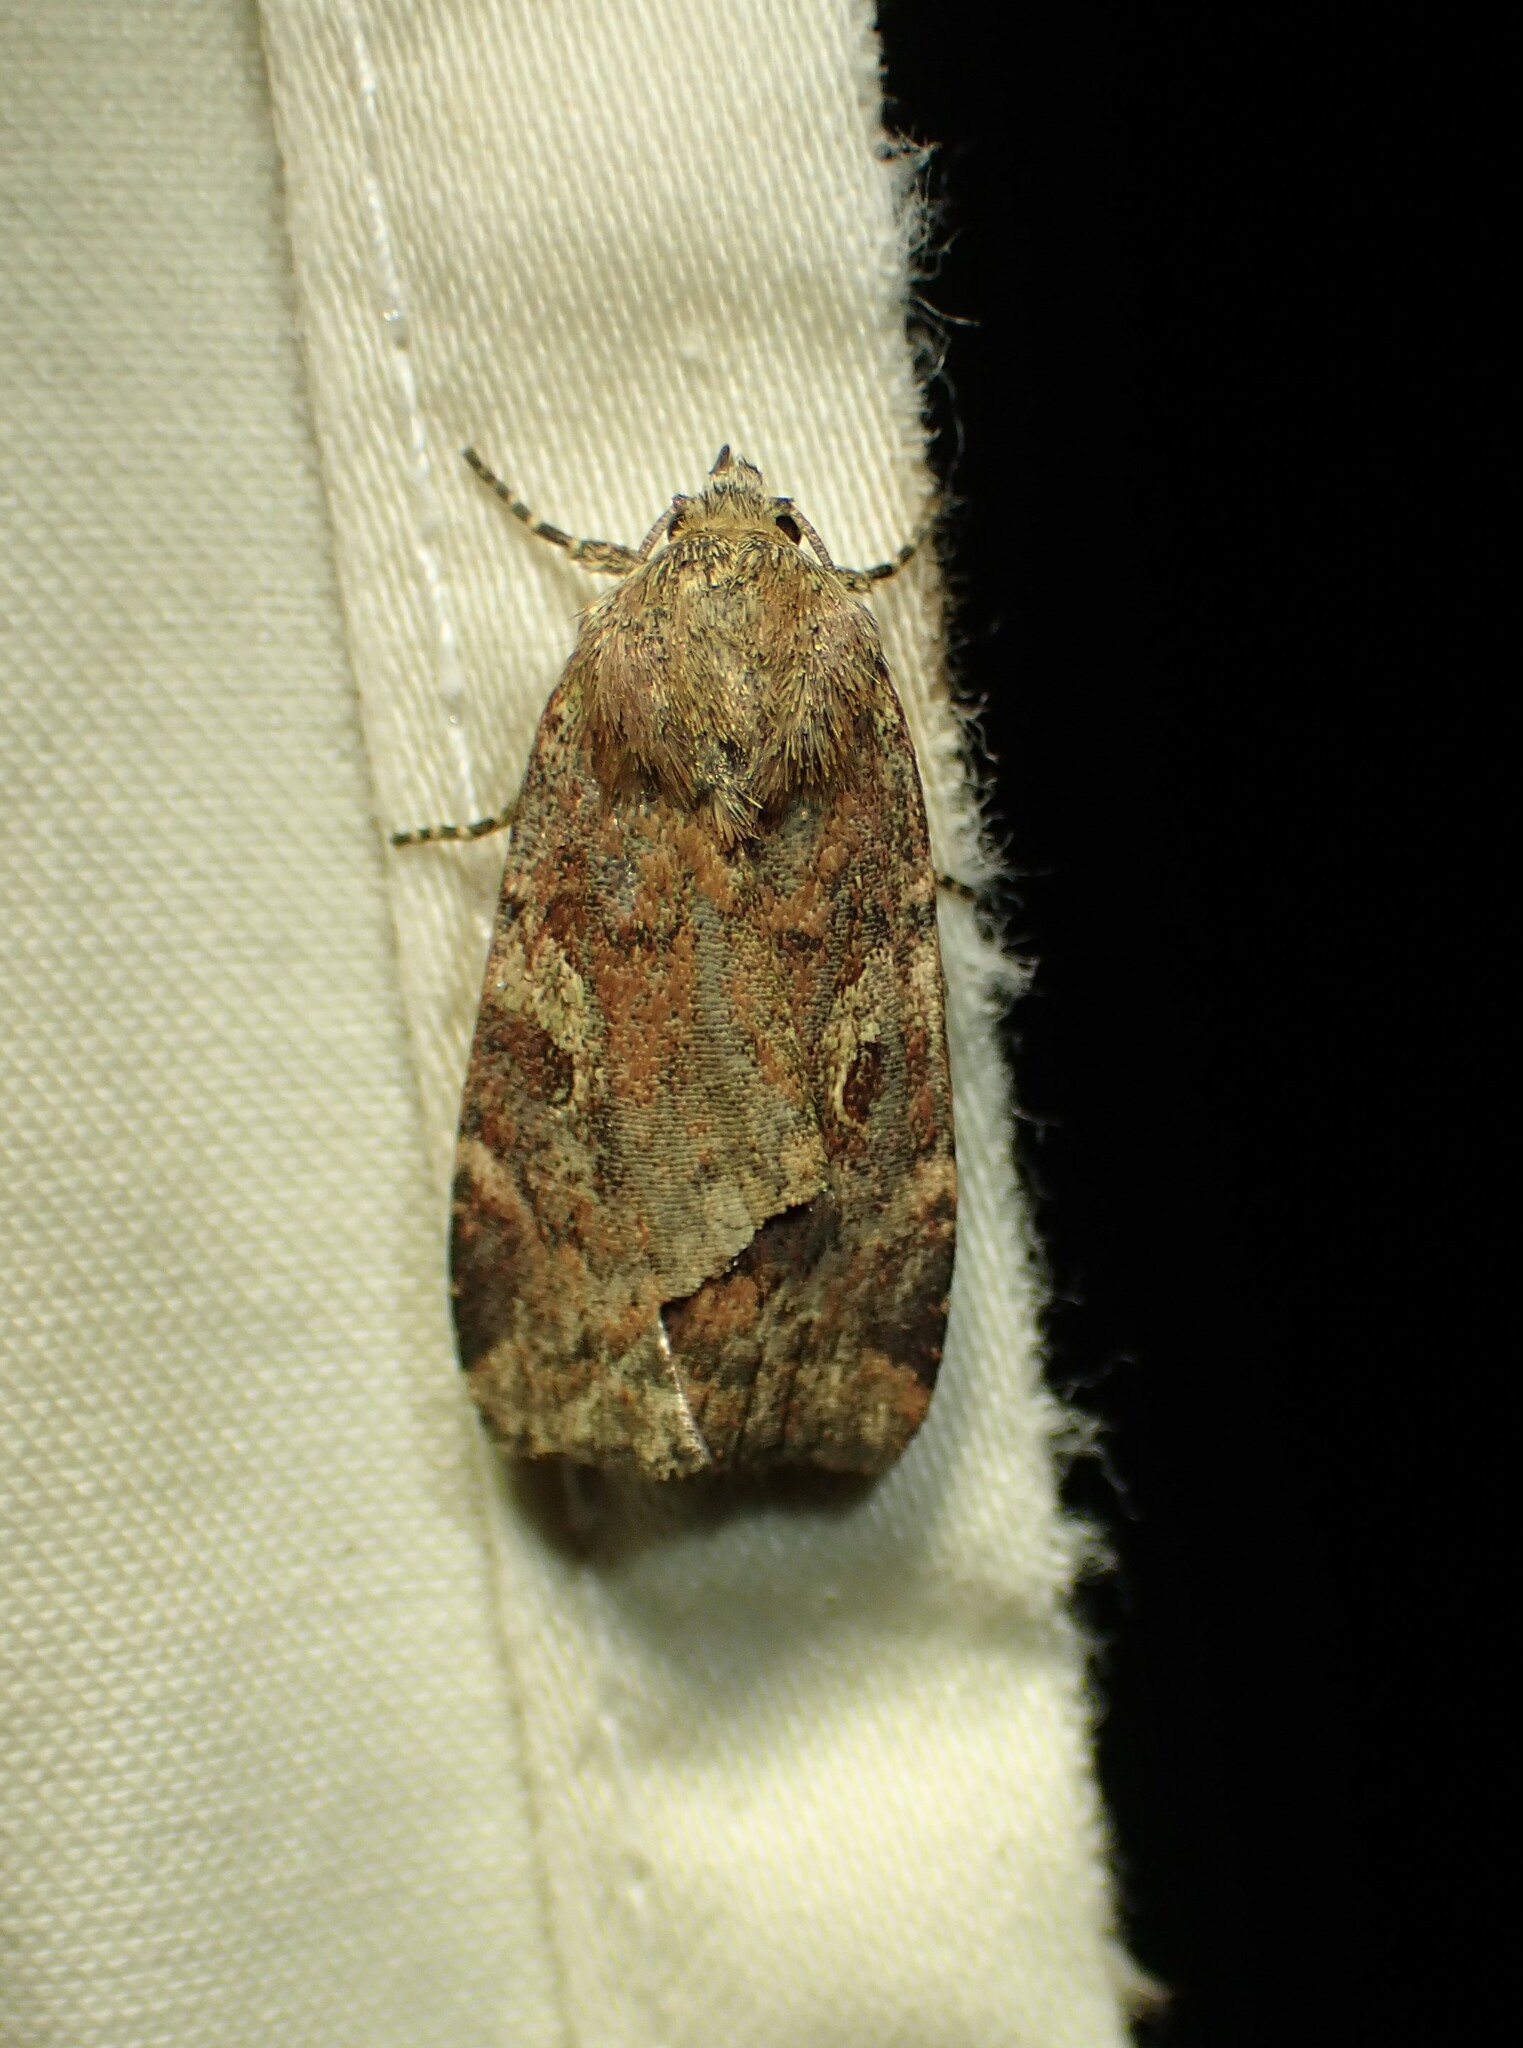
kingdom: Animalia
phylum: Arthropoda
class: Insecta
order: Lepidoptera
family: Noctuidae
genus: Cryptocala
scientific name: Cryptocala acadiensis
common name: Catocaline dart
